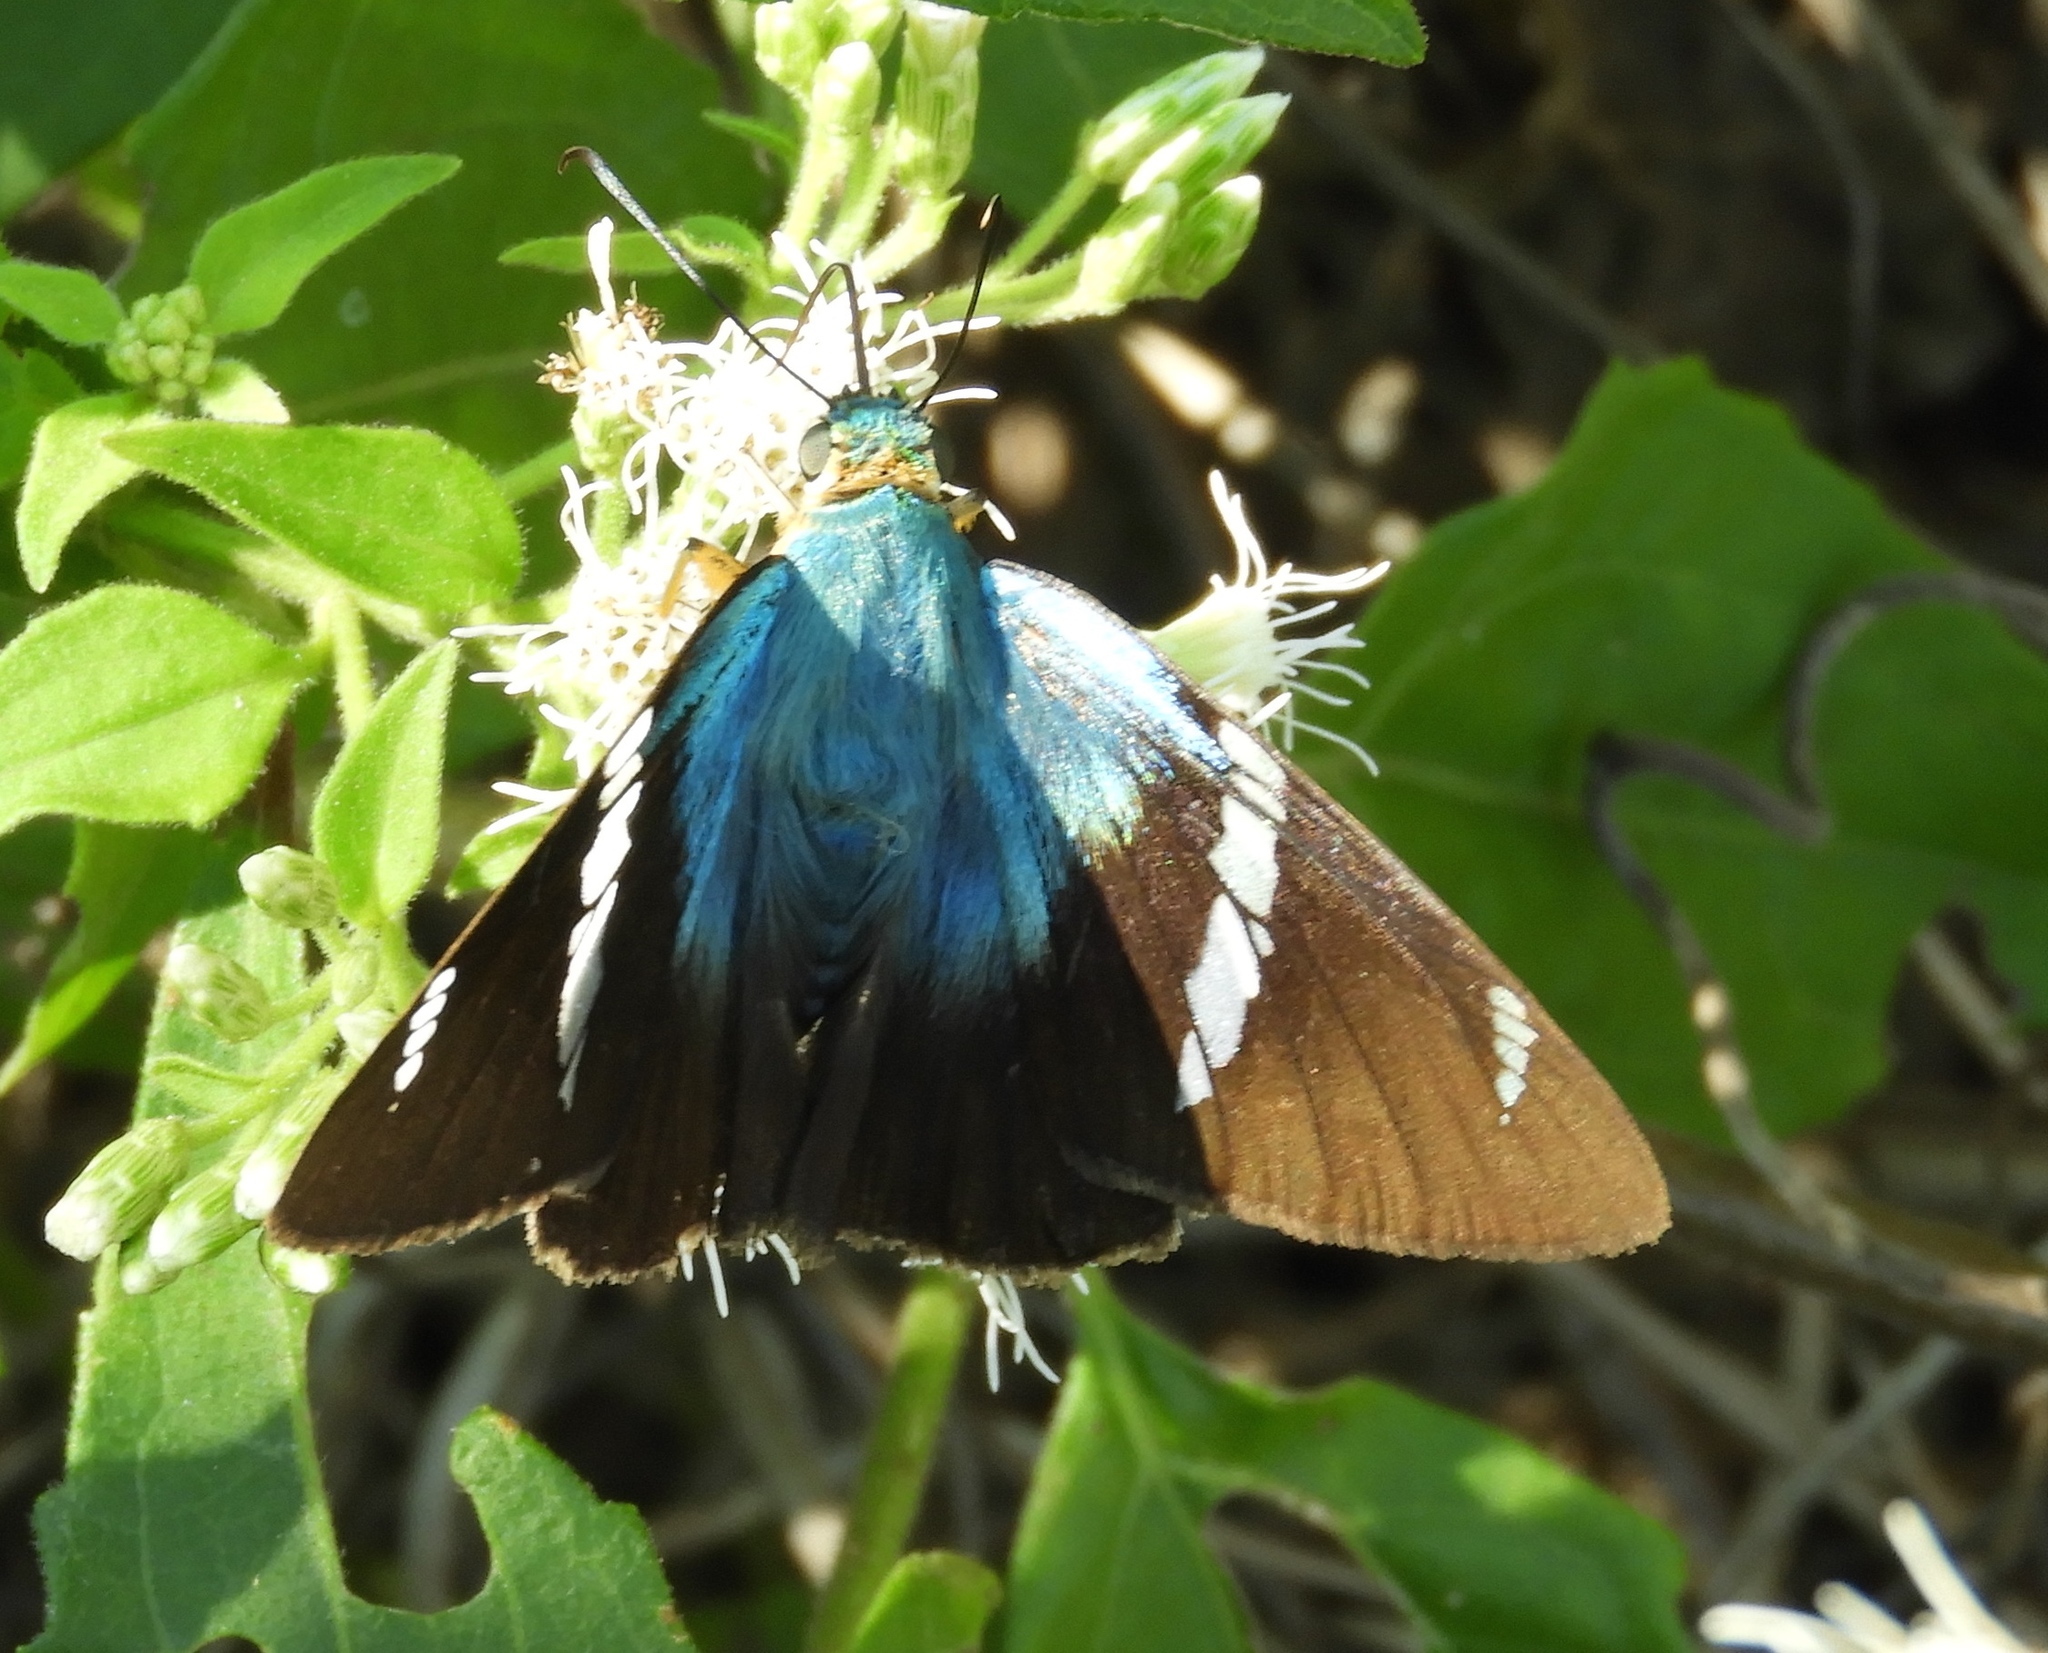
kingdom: Animalia
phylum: Arthropoda
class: Insecta
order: Lepidoptera
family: Hesperiidae
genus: Astraptes
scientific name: Astraptes fulgerator
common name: Two-barred flasher
